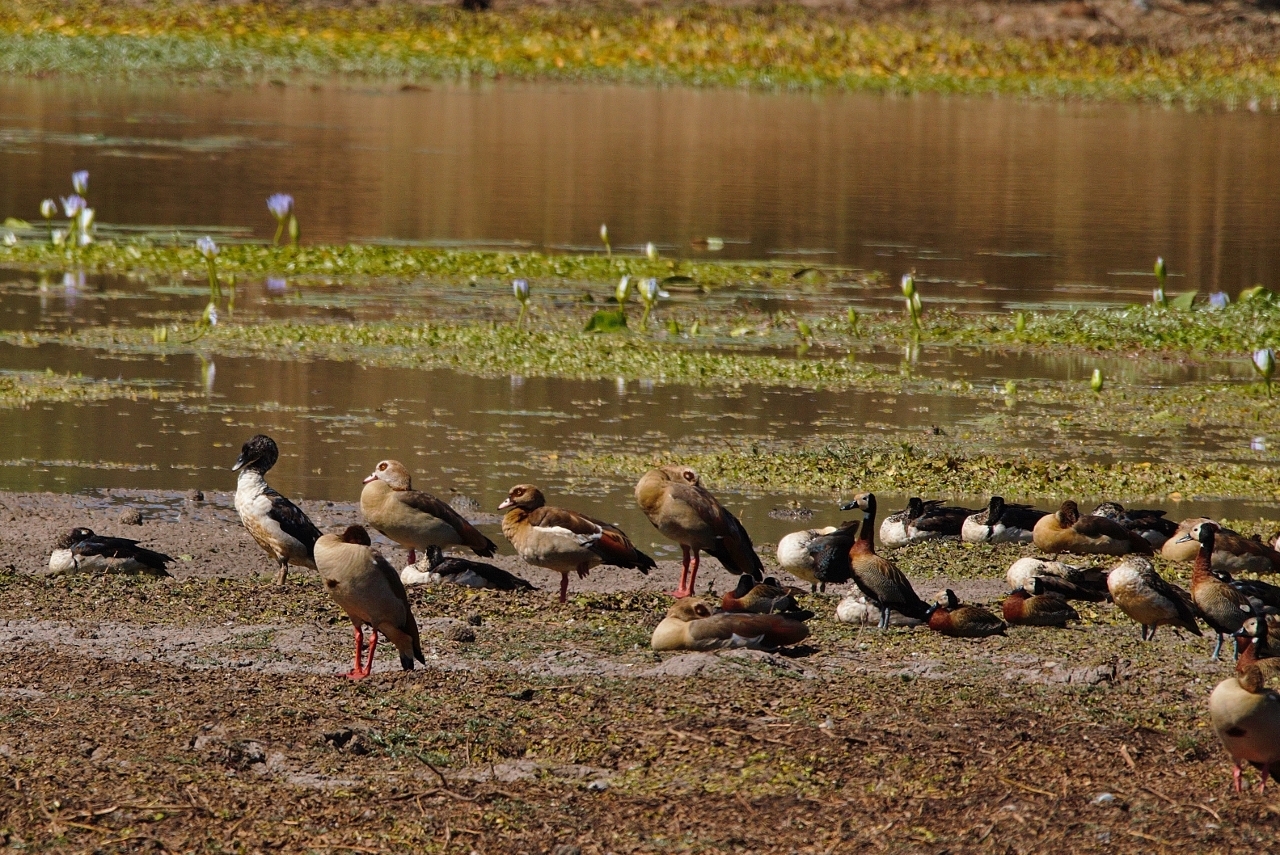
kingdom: Animalia
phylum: Chordata
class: Aves
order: Anseriformes
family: Anatidae
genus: Alopochen
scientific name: Alopochen aegyptiaca
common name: Egyptian goose
